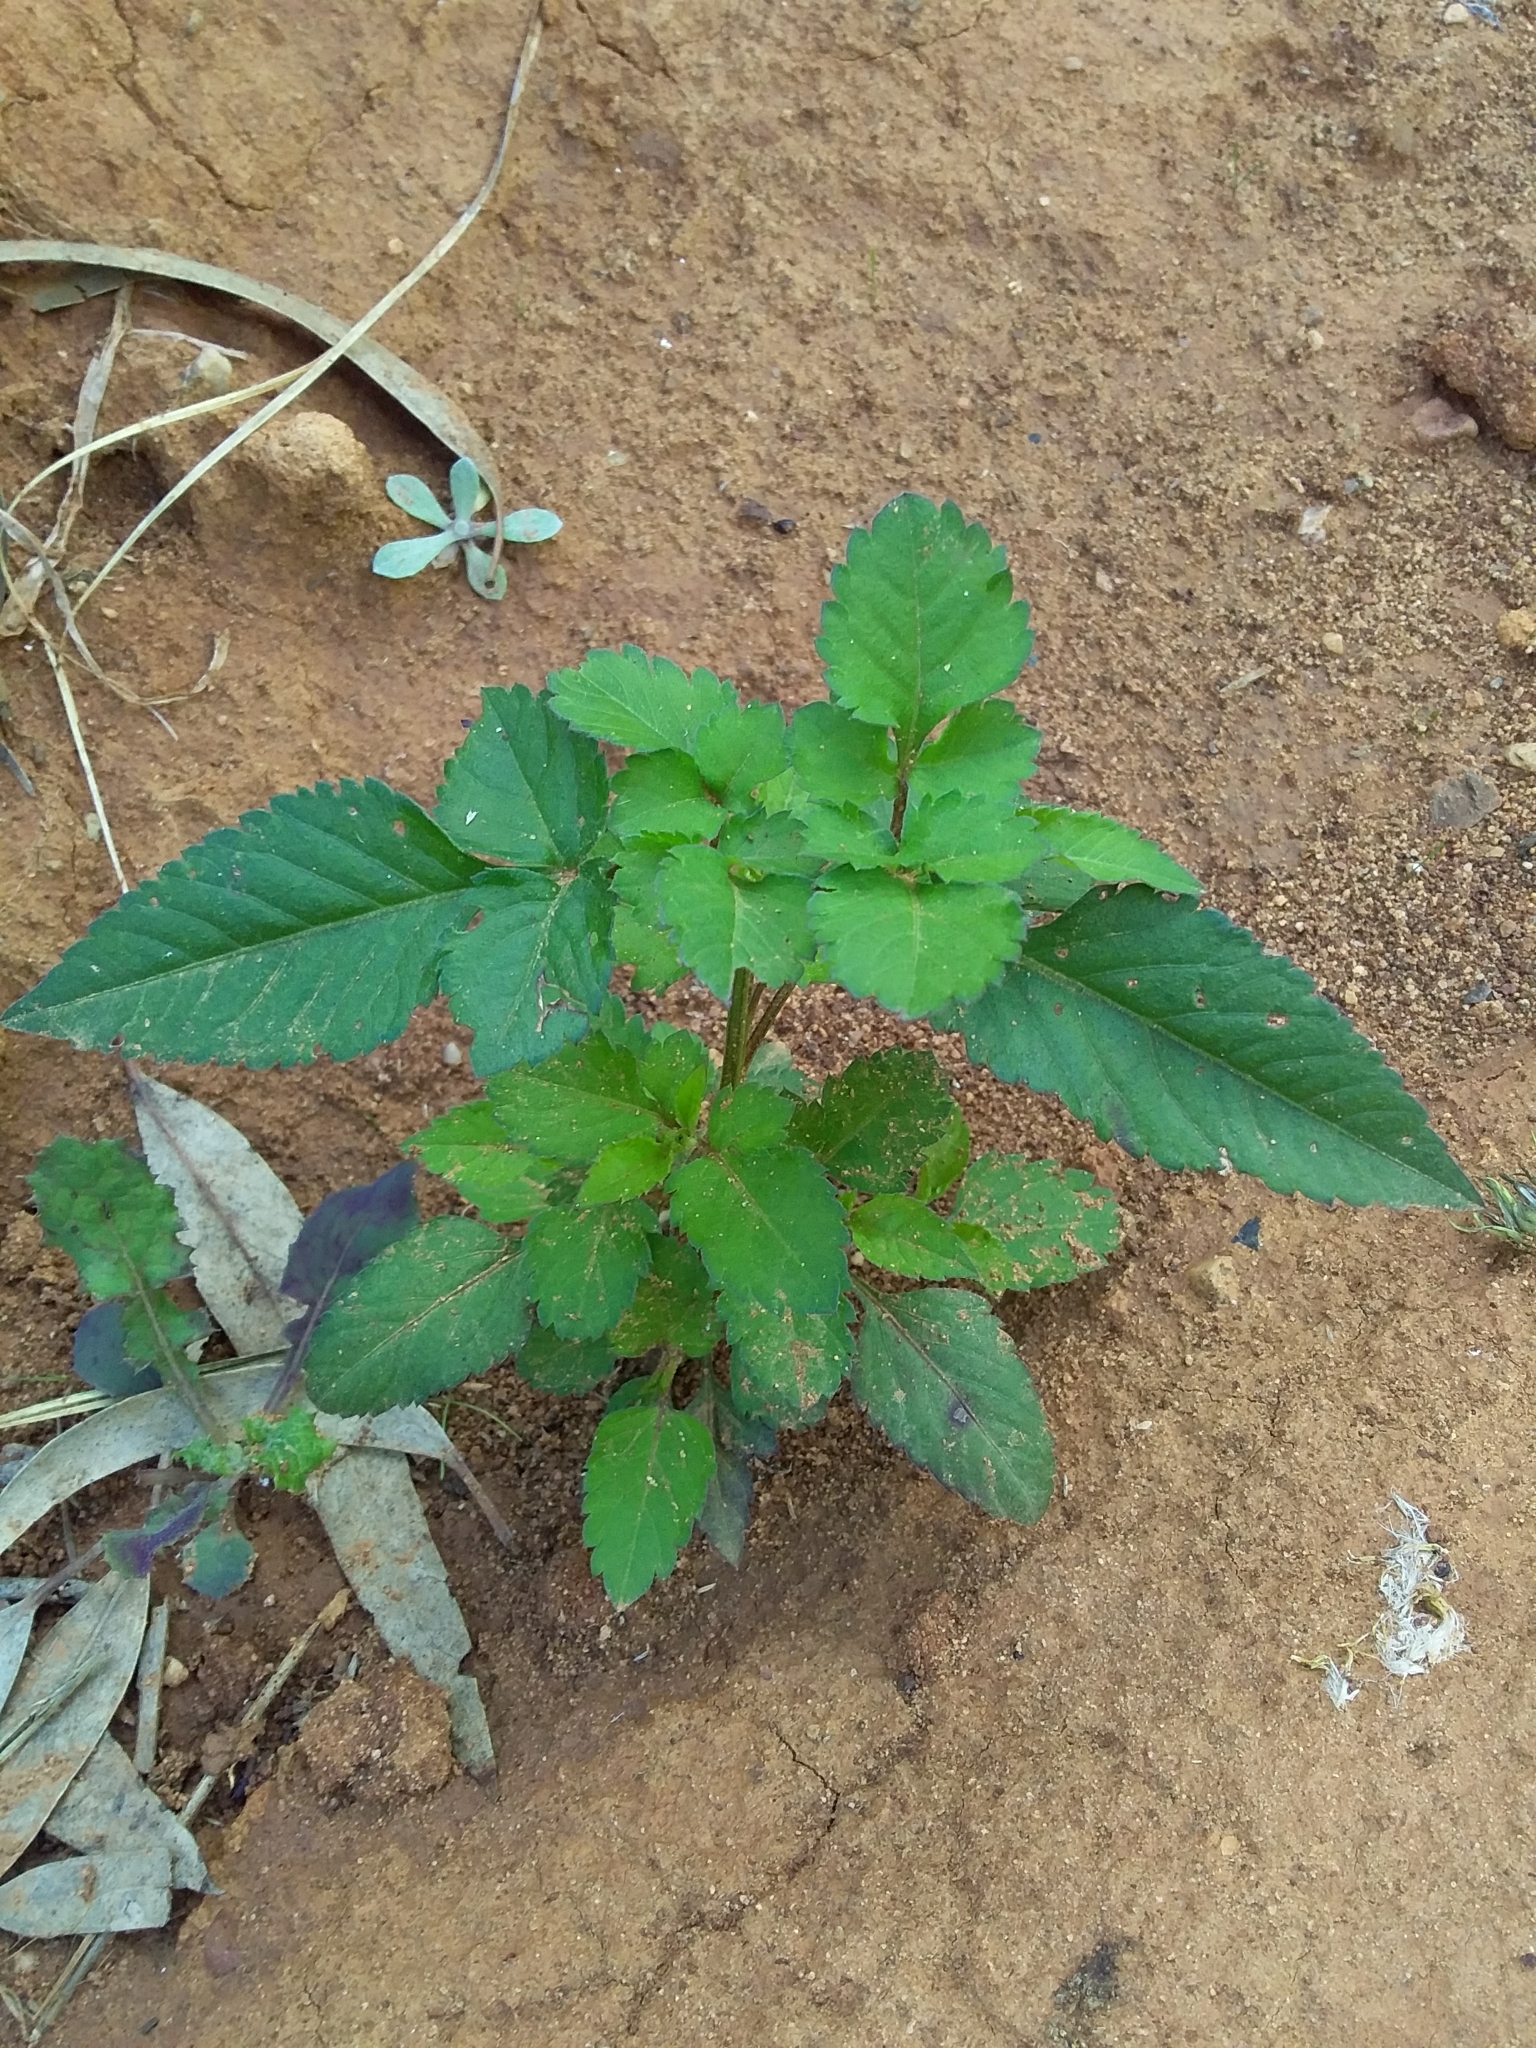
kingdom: Plantae
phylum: Tracheophyta
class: Magnoliopsida
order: Asterales
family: Asteraceae
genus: Bidens
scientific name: Bidens pilosa
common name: Black-jack
